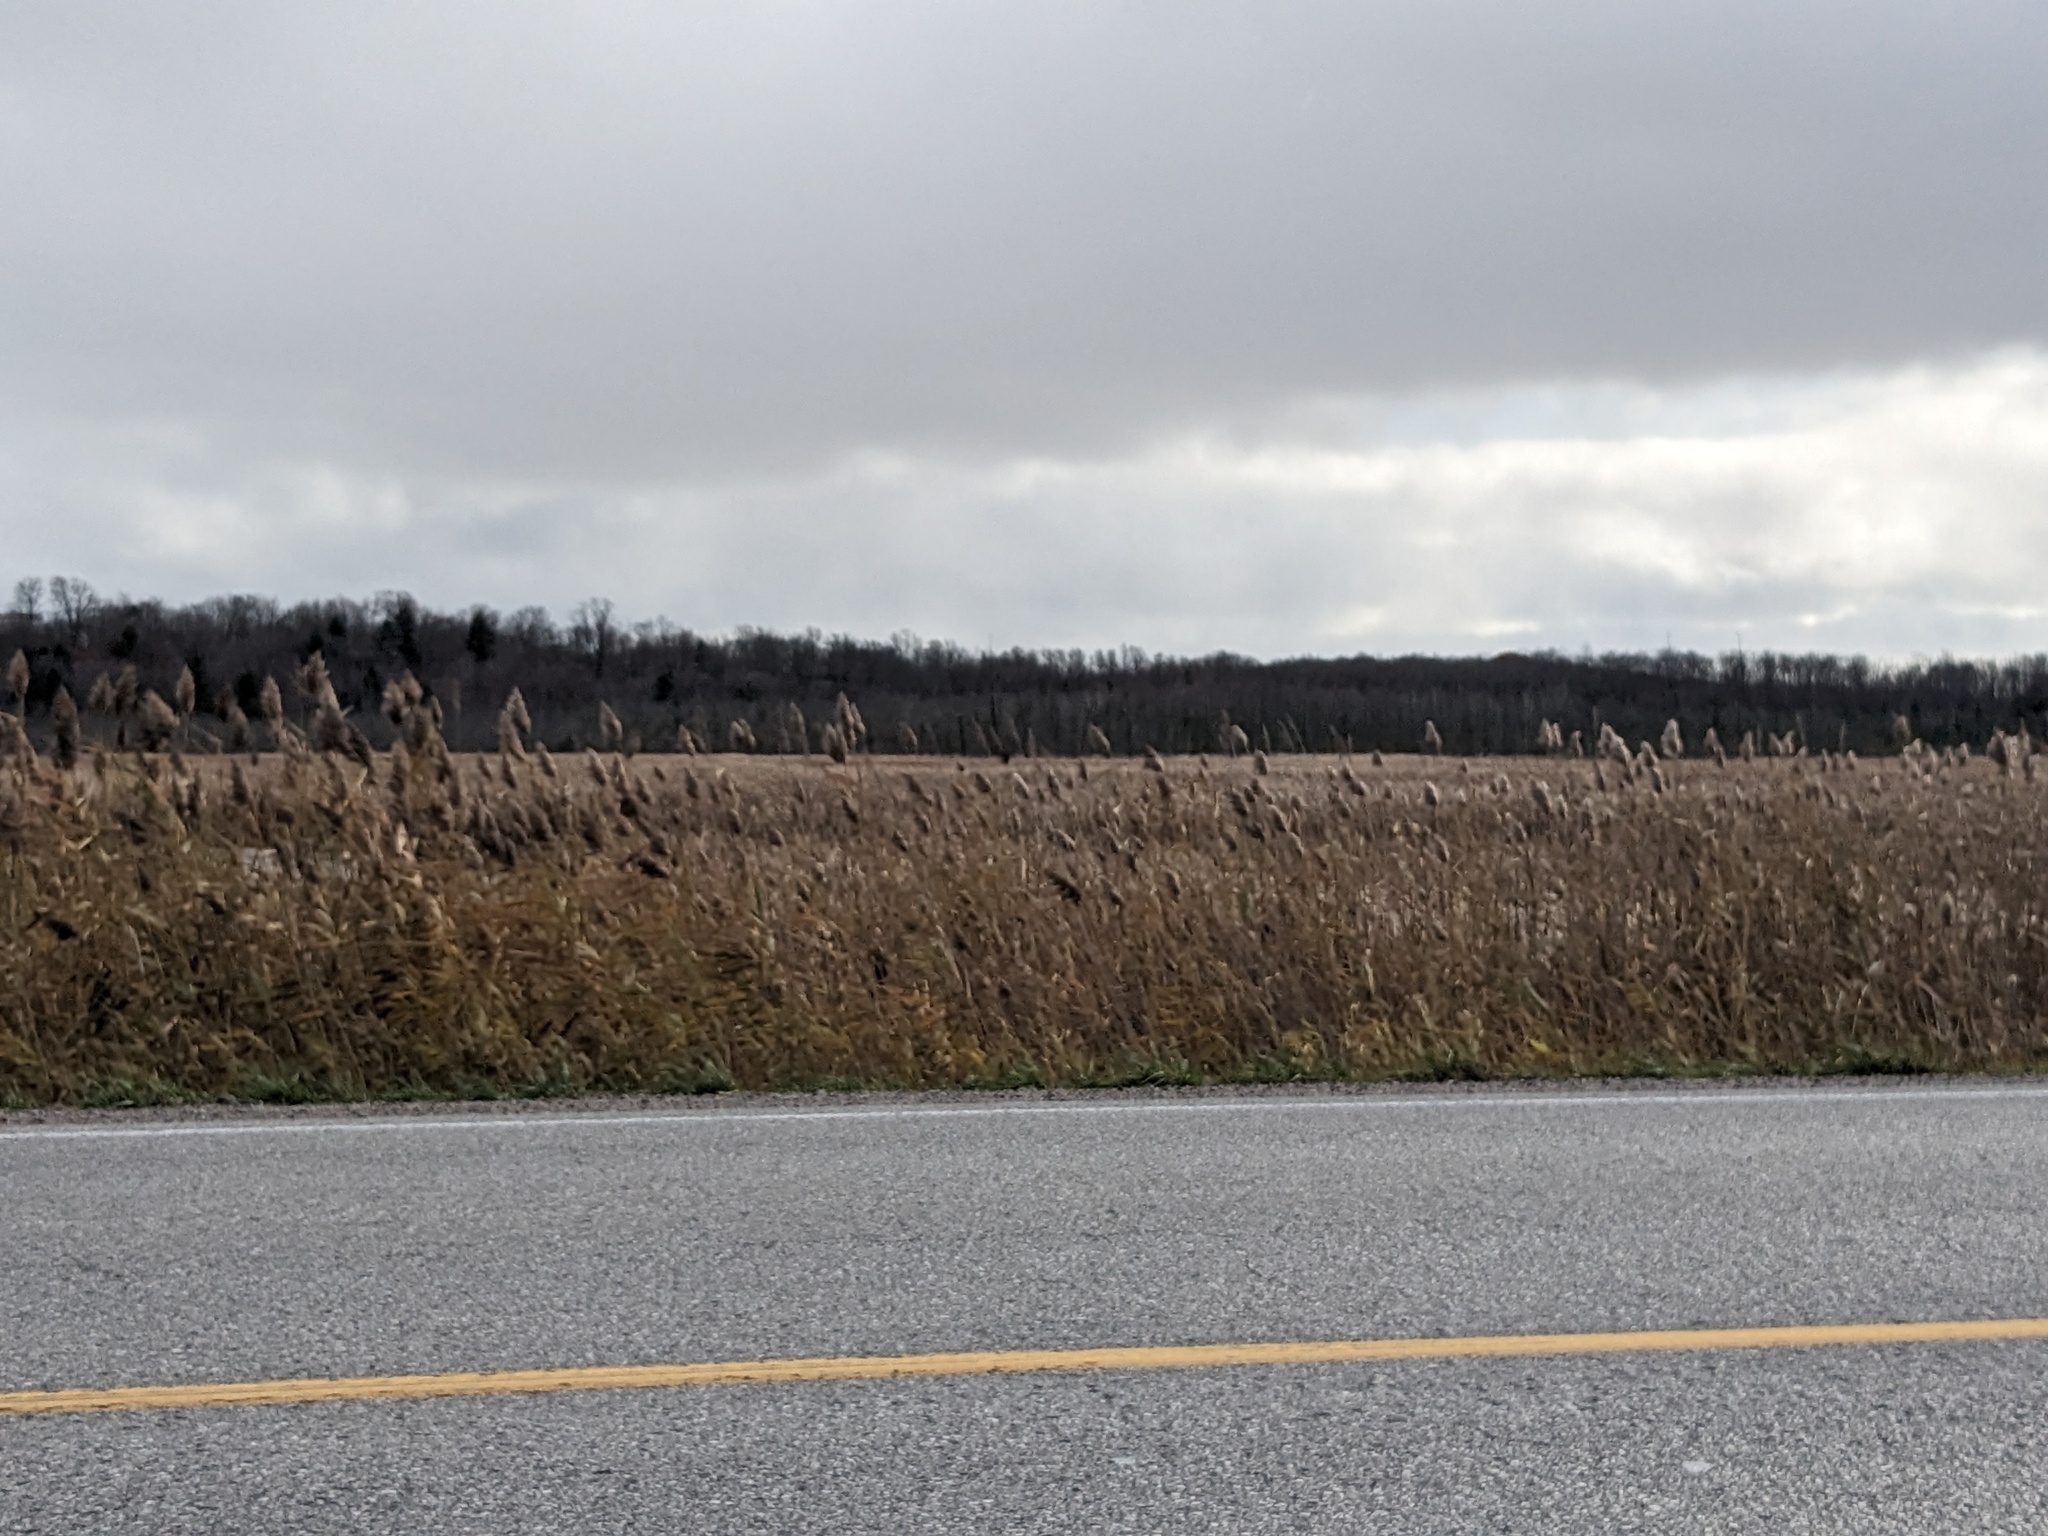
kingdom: Plantae
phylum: Tracheophyta
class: Liliopsida
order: Poales
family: Poaceae
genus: Phragmites
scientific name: Phragmites australis
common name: Common reed
